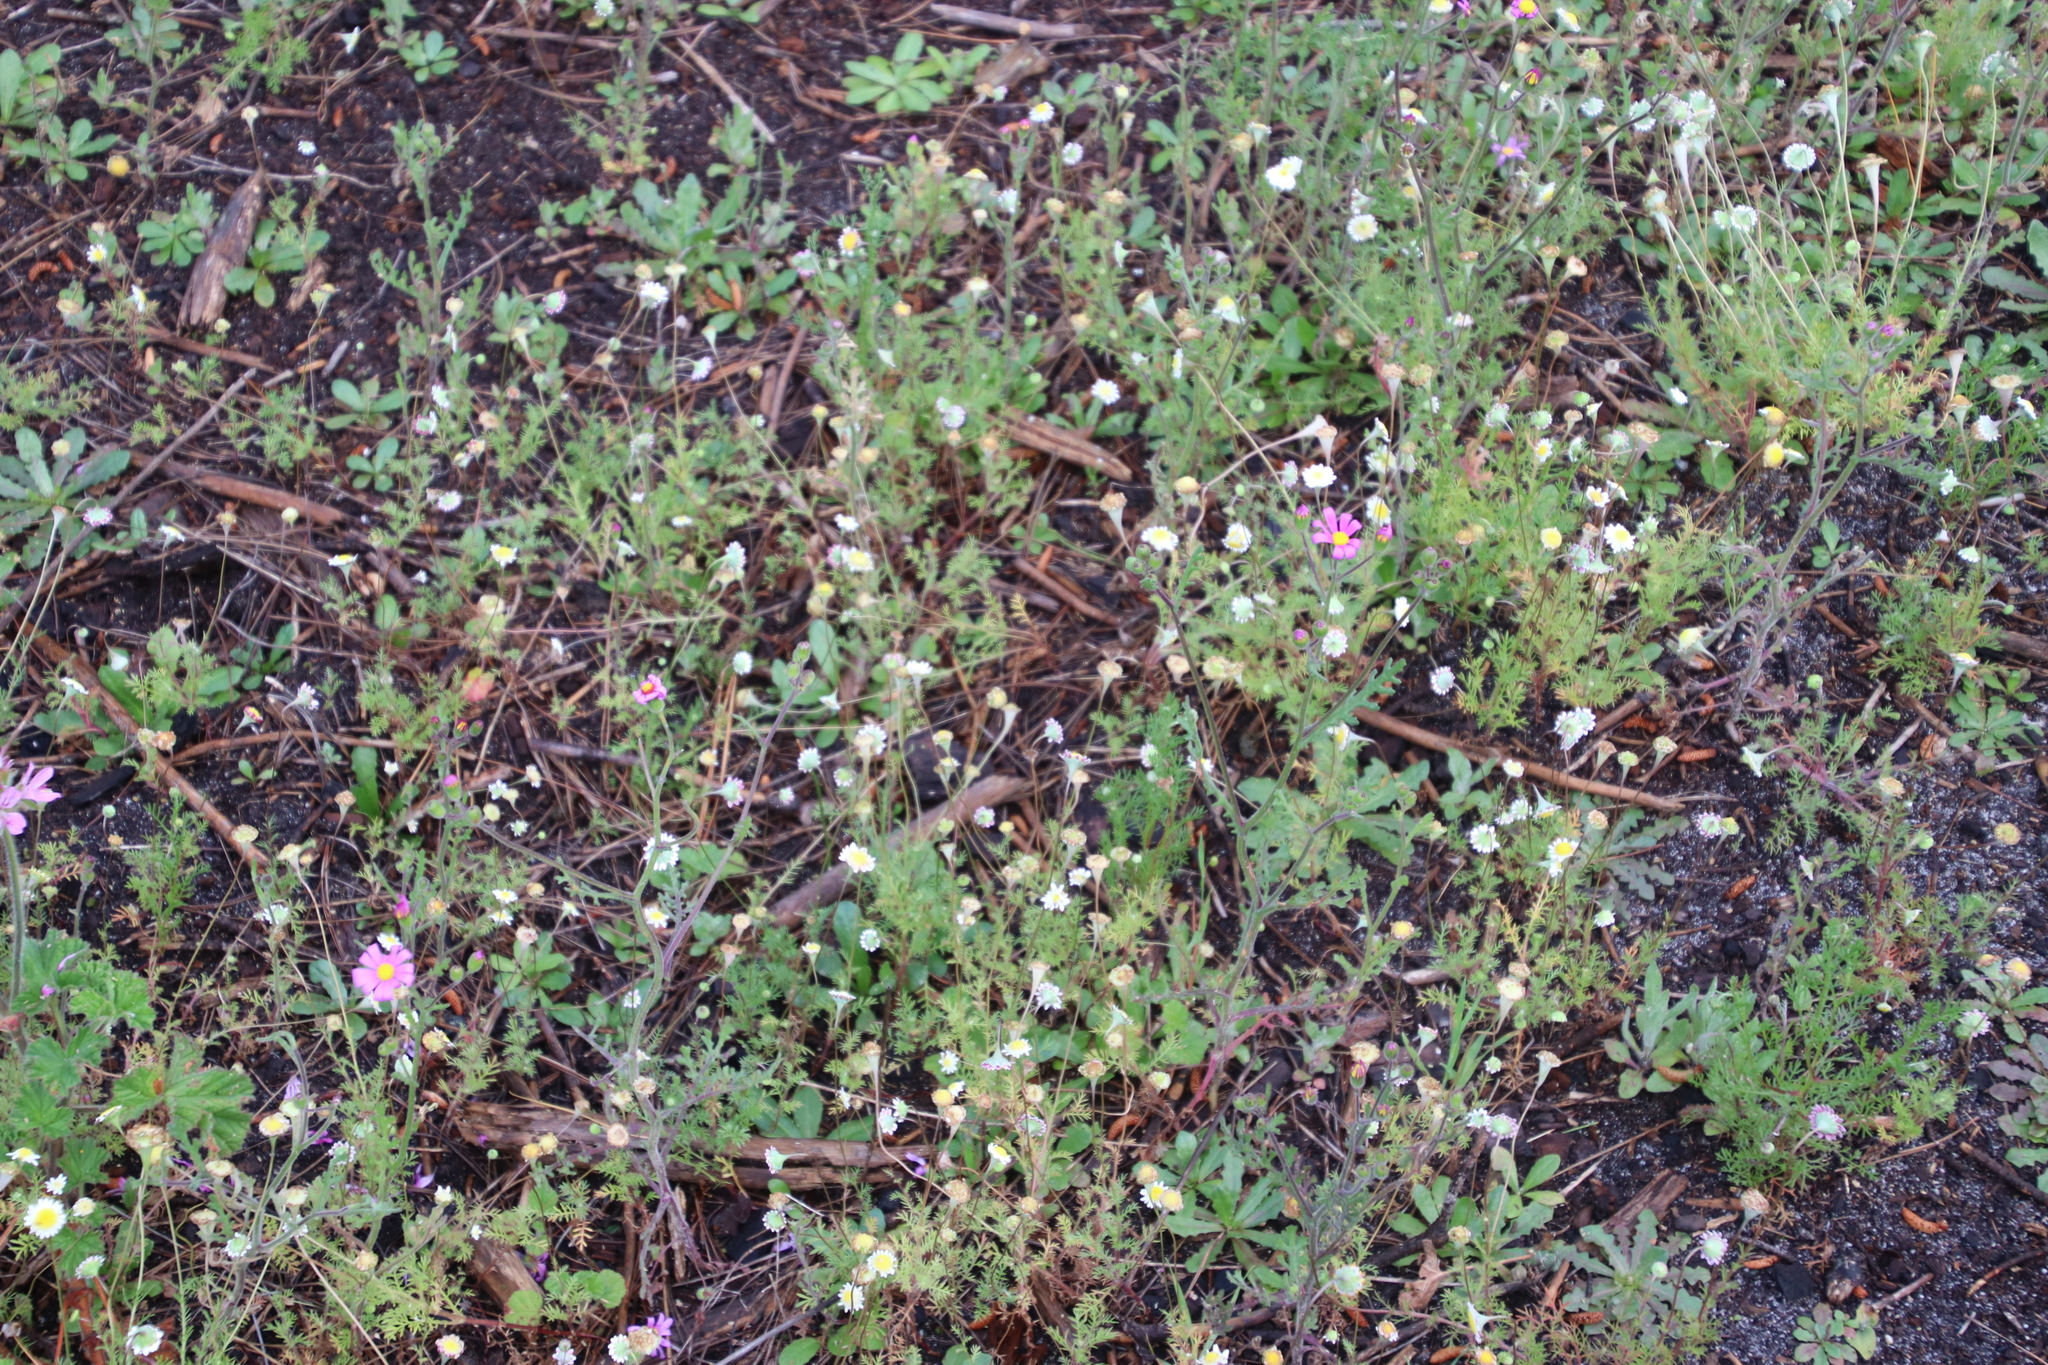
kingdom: Plantae
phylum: Tracheophyta
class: Magnoliopsida
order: Asterales
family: Asteraceae
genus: Cotula
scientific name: Cotula turbinata
